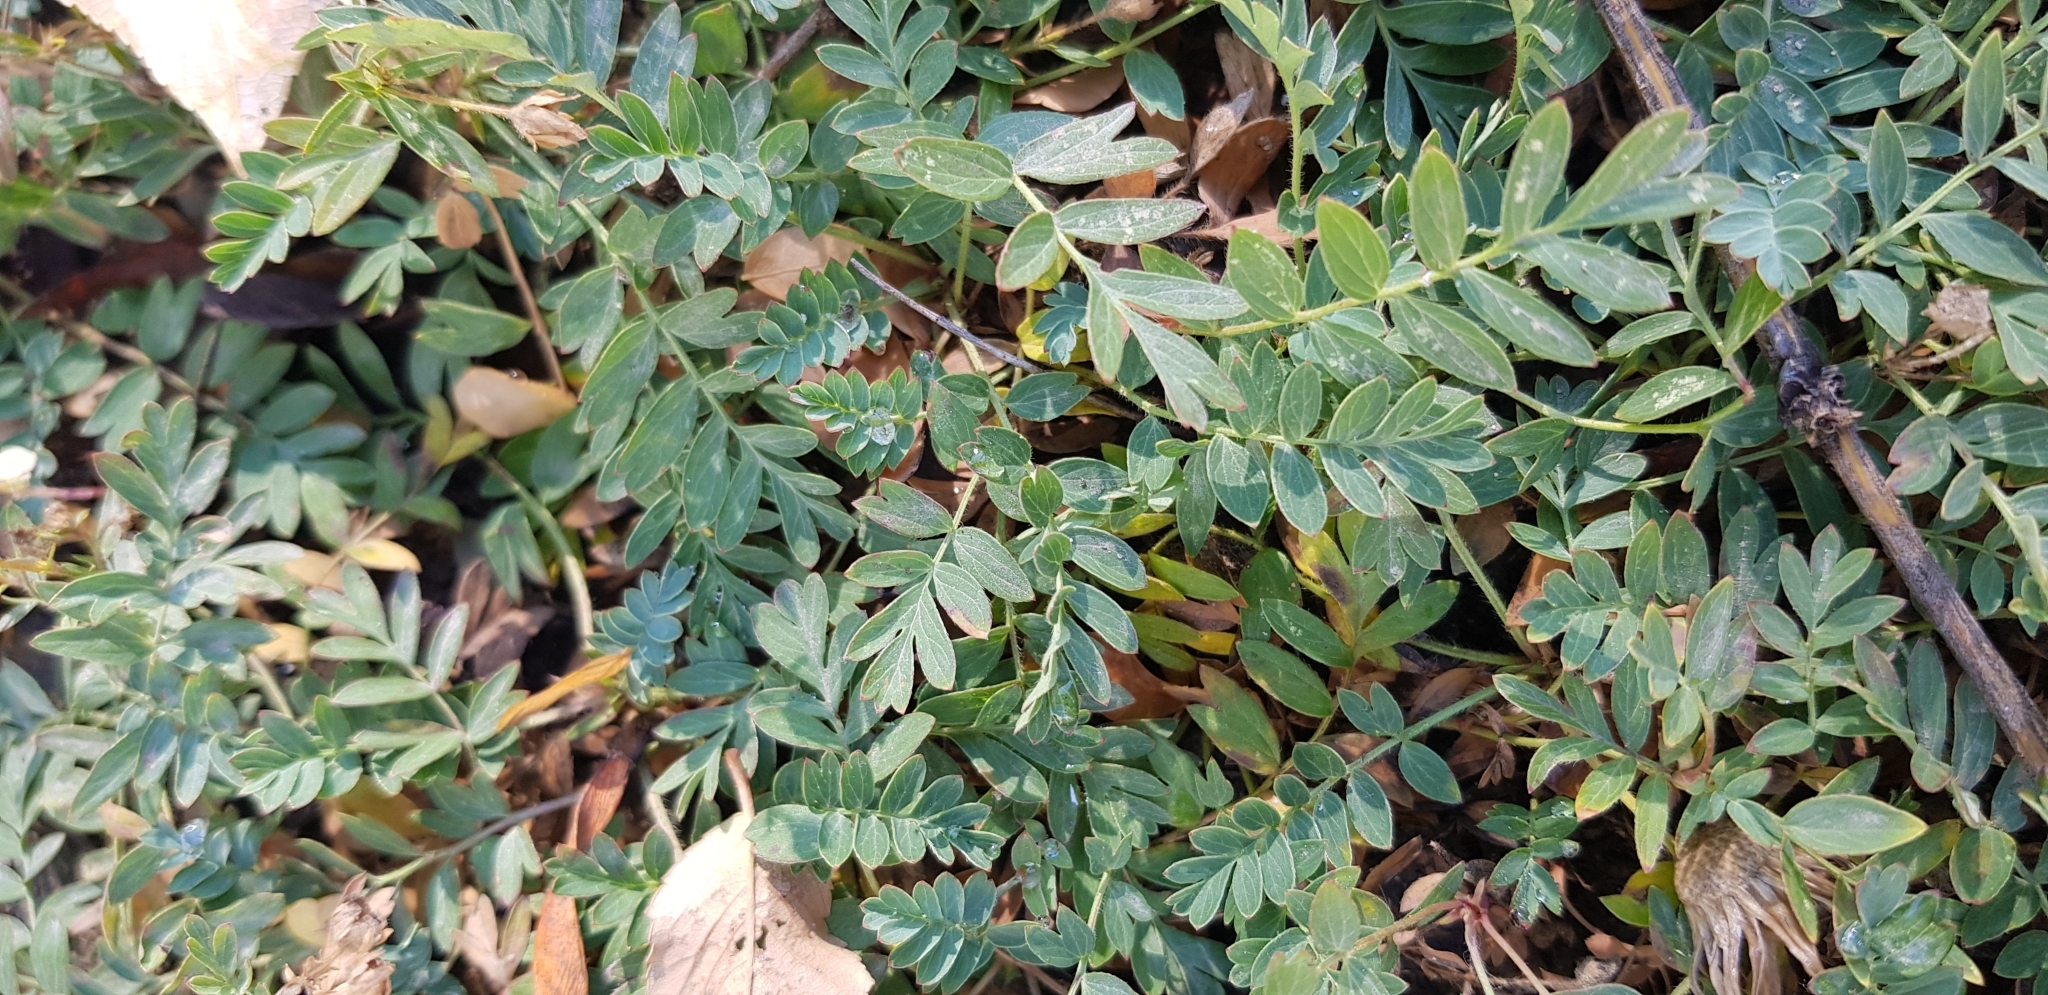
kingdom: Plantae
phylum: Tracheophyta
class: Magnoliopsida
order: Rosales
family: Rosaceae
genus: Sibbaldianthe
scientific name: Sibbaldianthe bifurca
